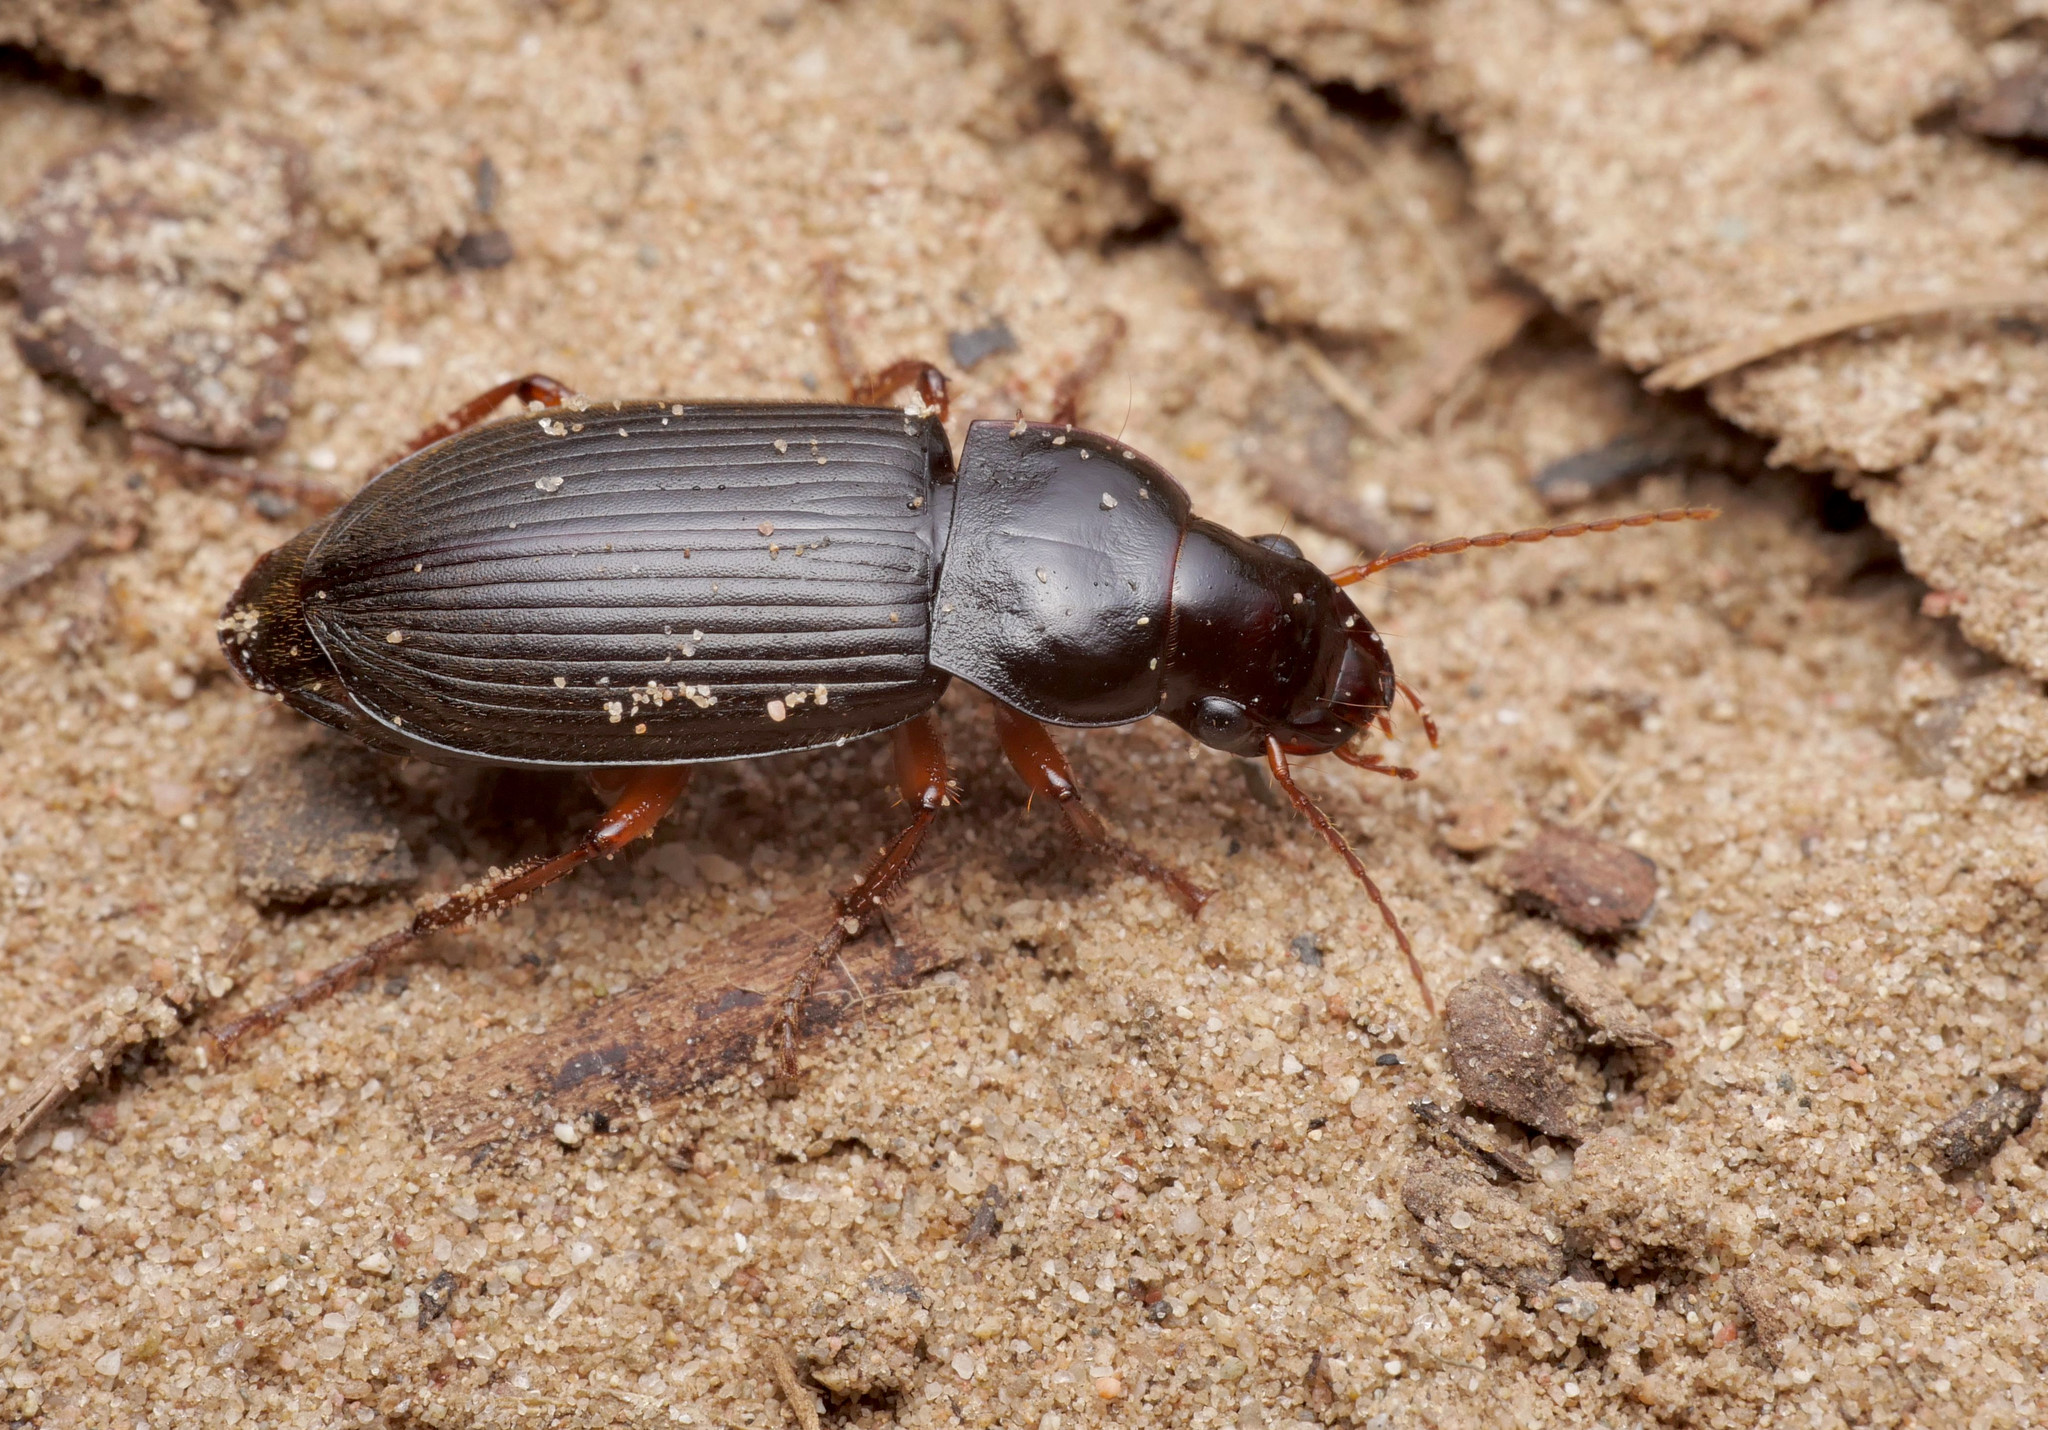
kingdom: Animalia
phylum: Arthropoda
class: Insecta
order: Coleoptera
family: Carabidae
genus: Harpalus
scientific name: Harpalus rufipes
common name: Strawberry harp ground beetle
